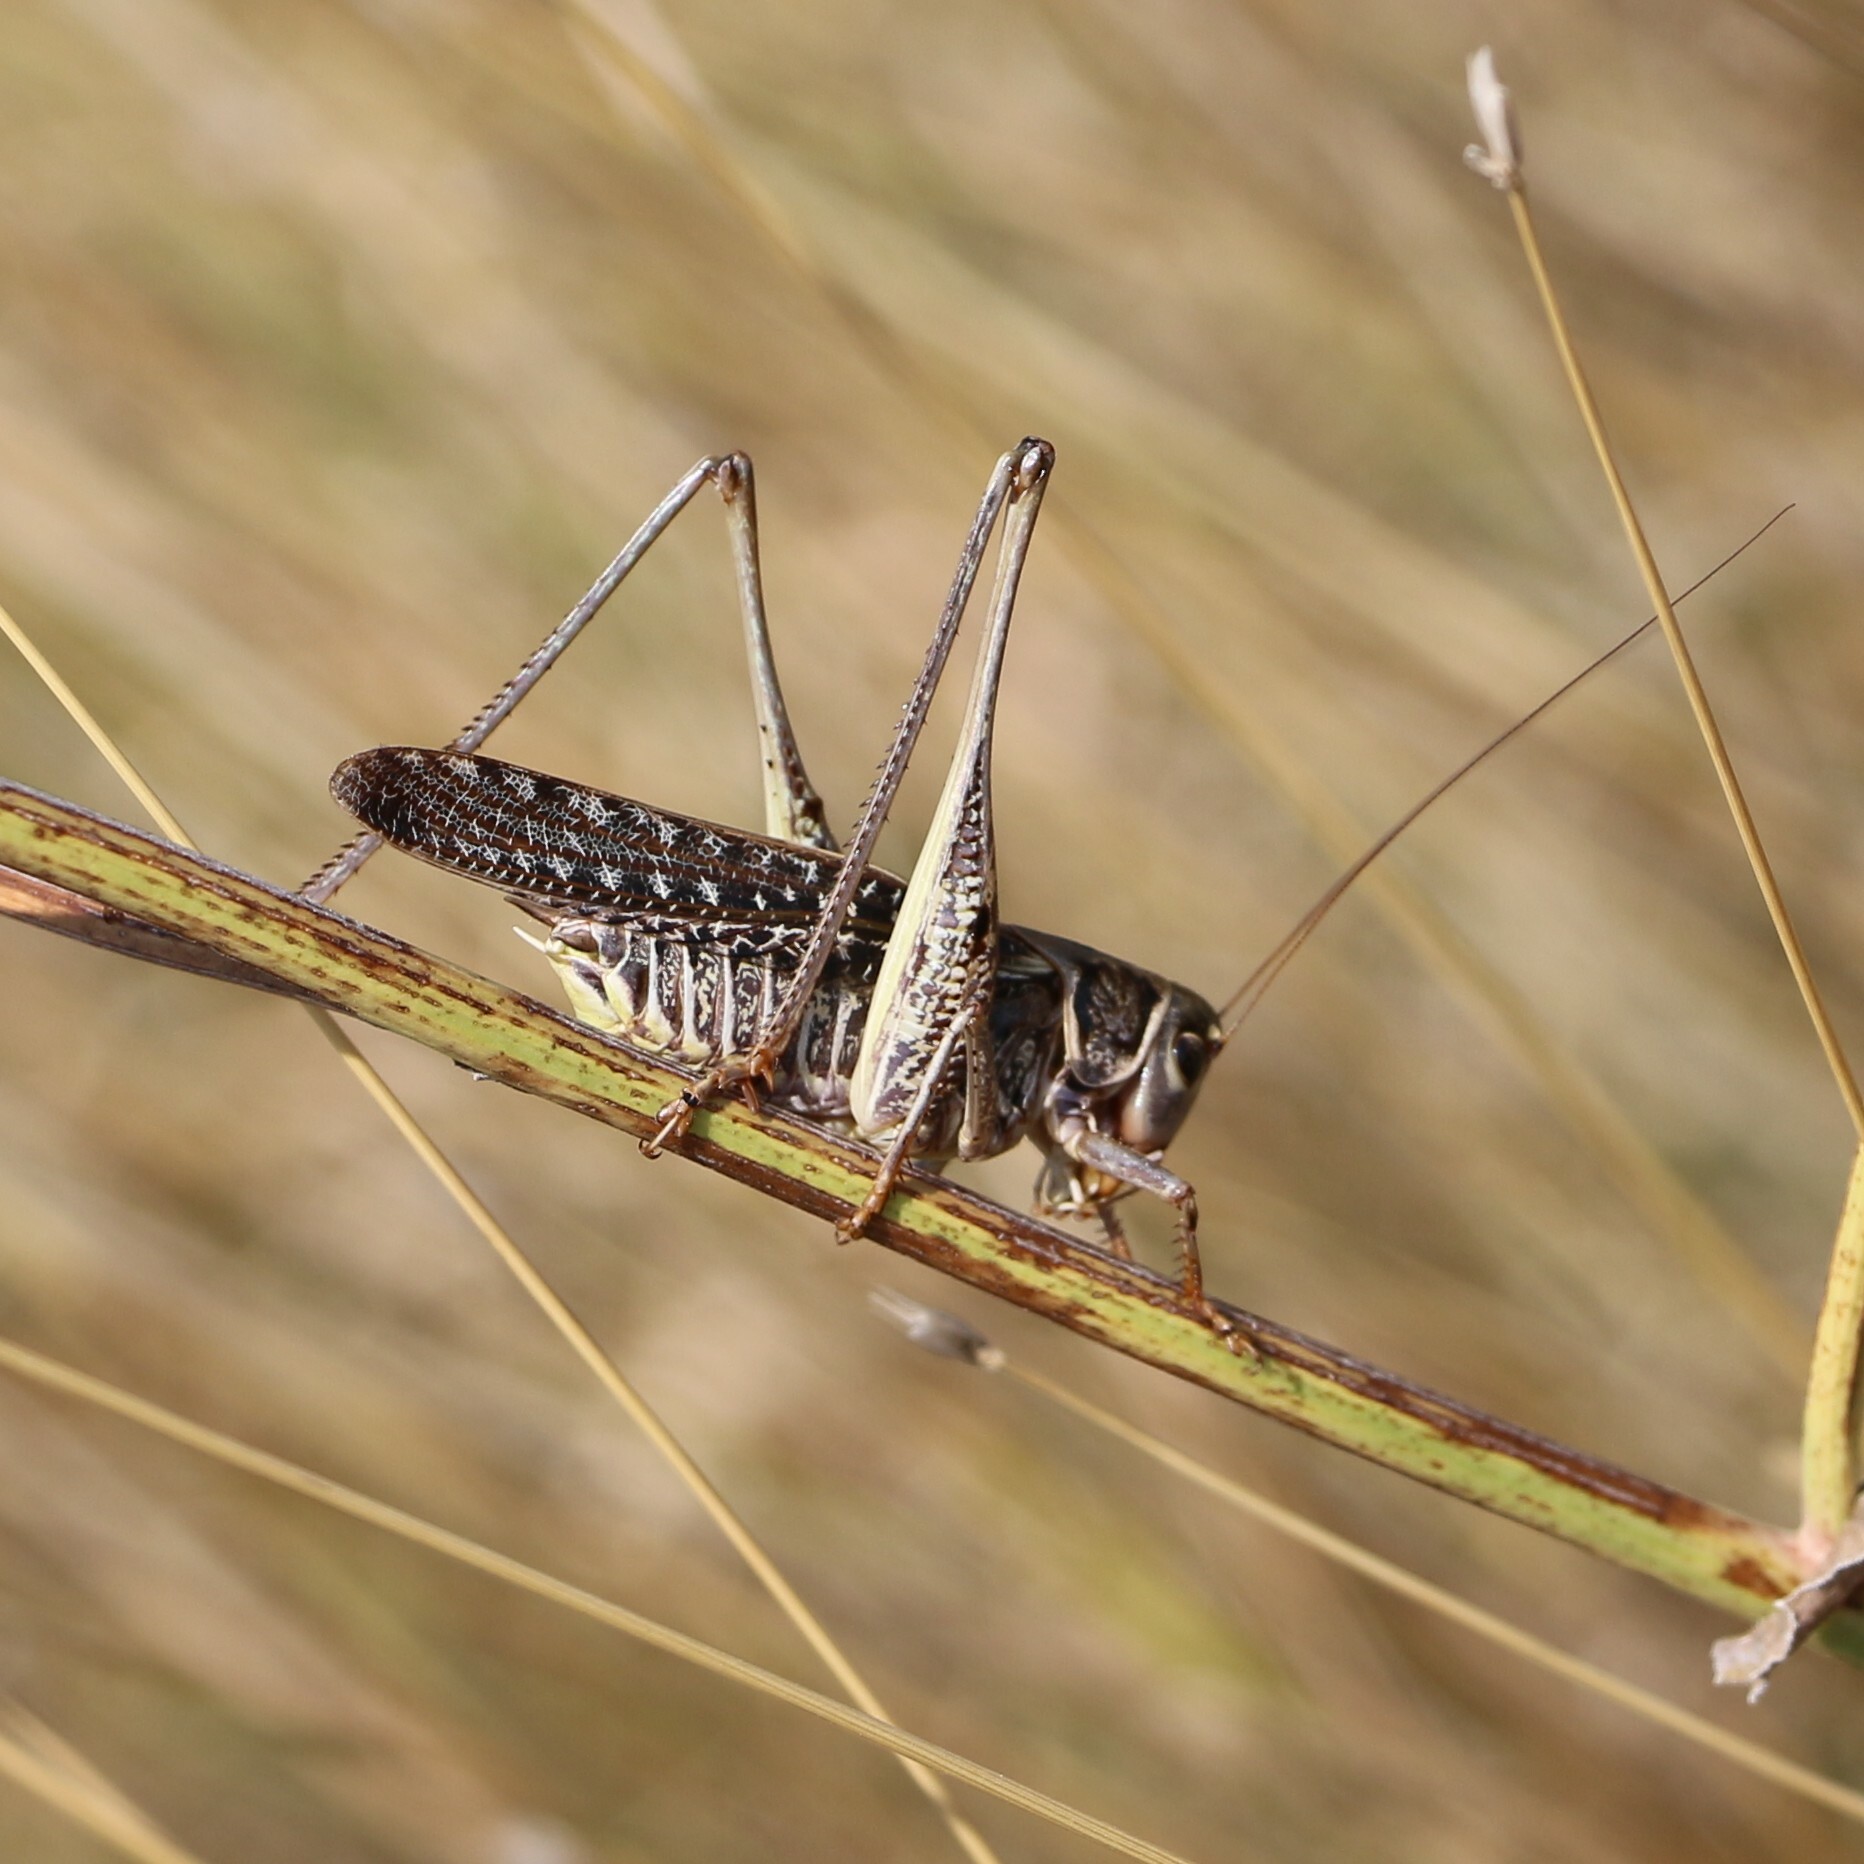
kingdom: Animalia
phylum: Arthropoda
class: Insecta
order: Orthoptera
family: Tettigoniidae
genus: Decticus
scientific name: Decticus albifrons
